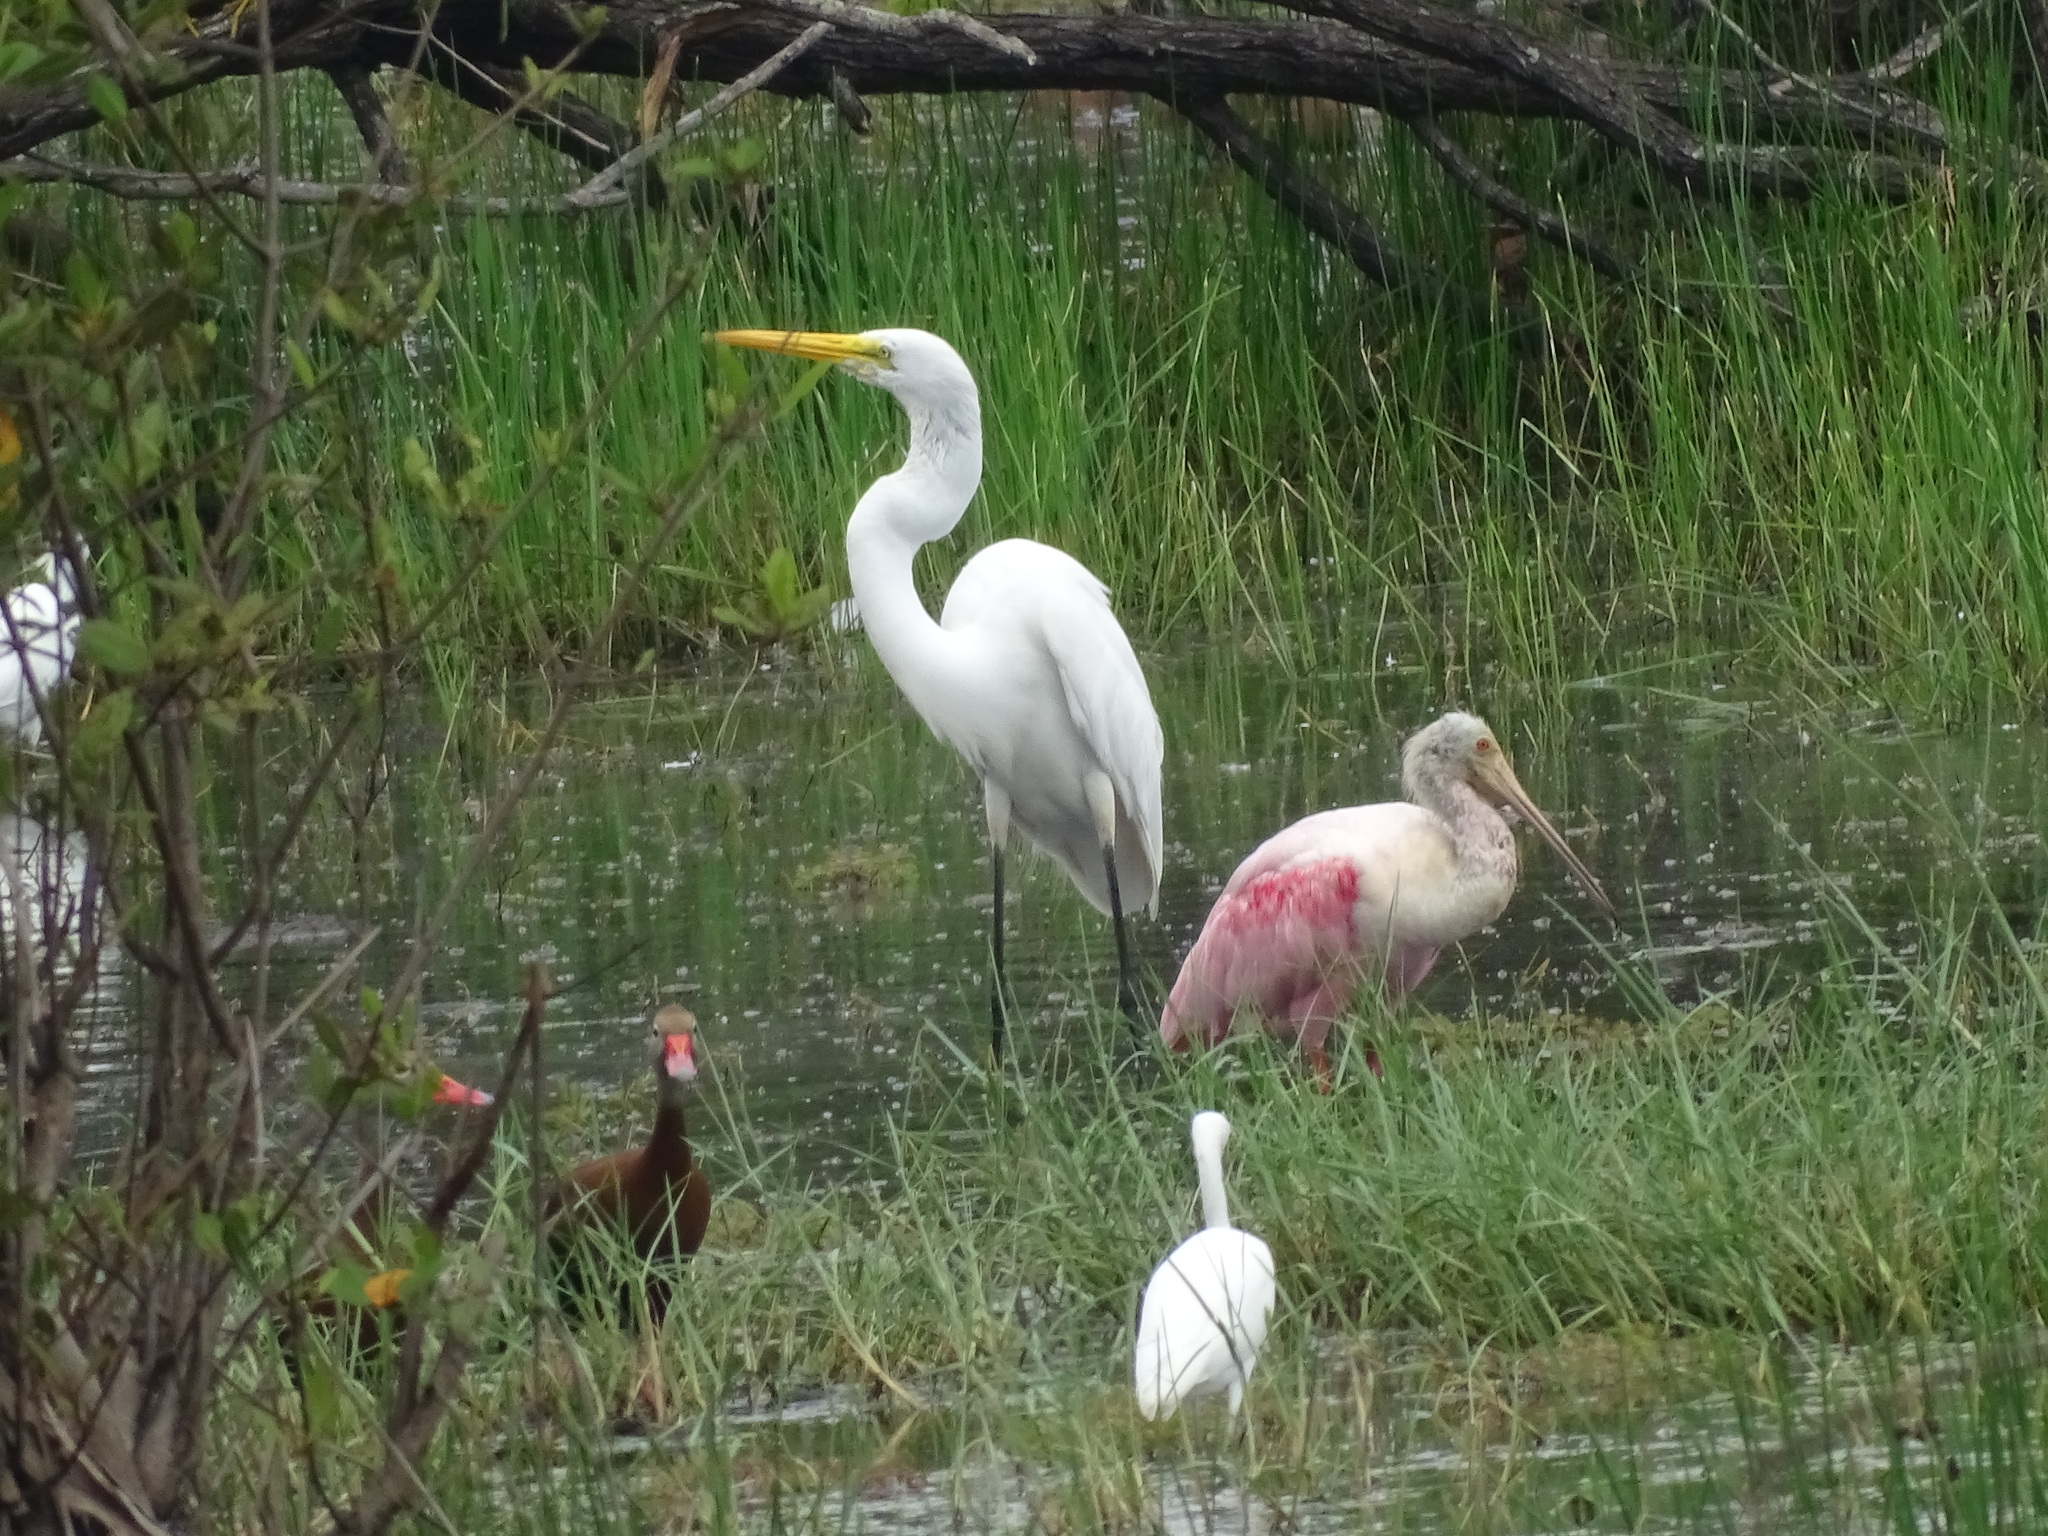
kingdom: Animalia
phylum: Chordata
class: Aves
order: Pelecaniformes
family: Threskiornithidae
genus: Platalea
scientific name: Platalea ajaja
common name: Roseate spoonbill
